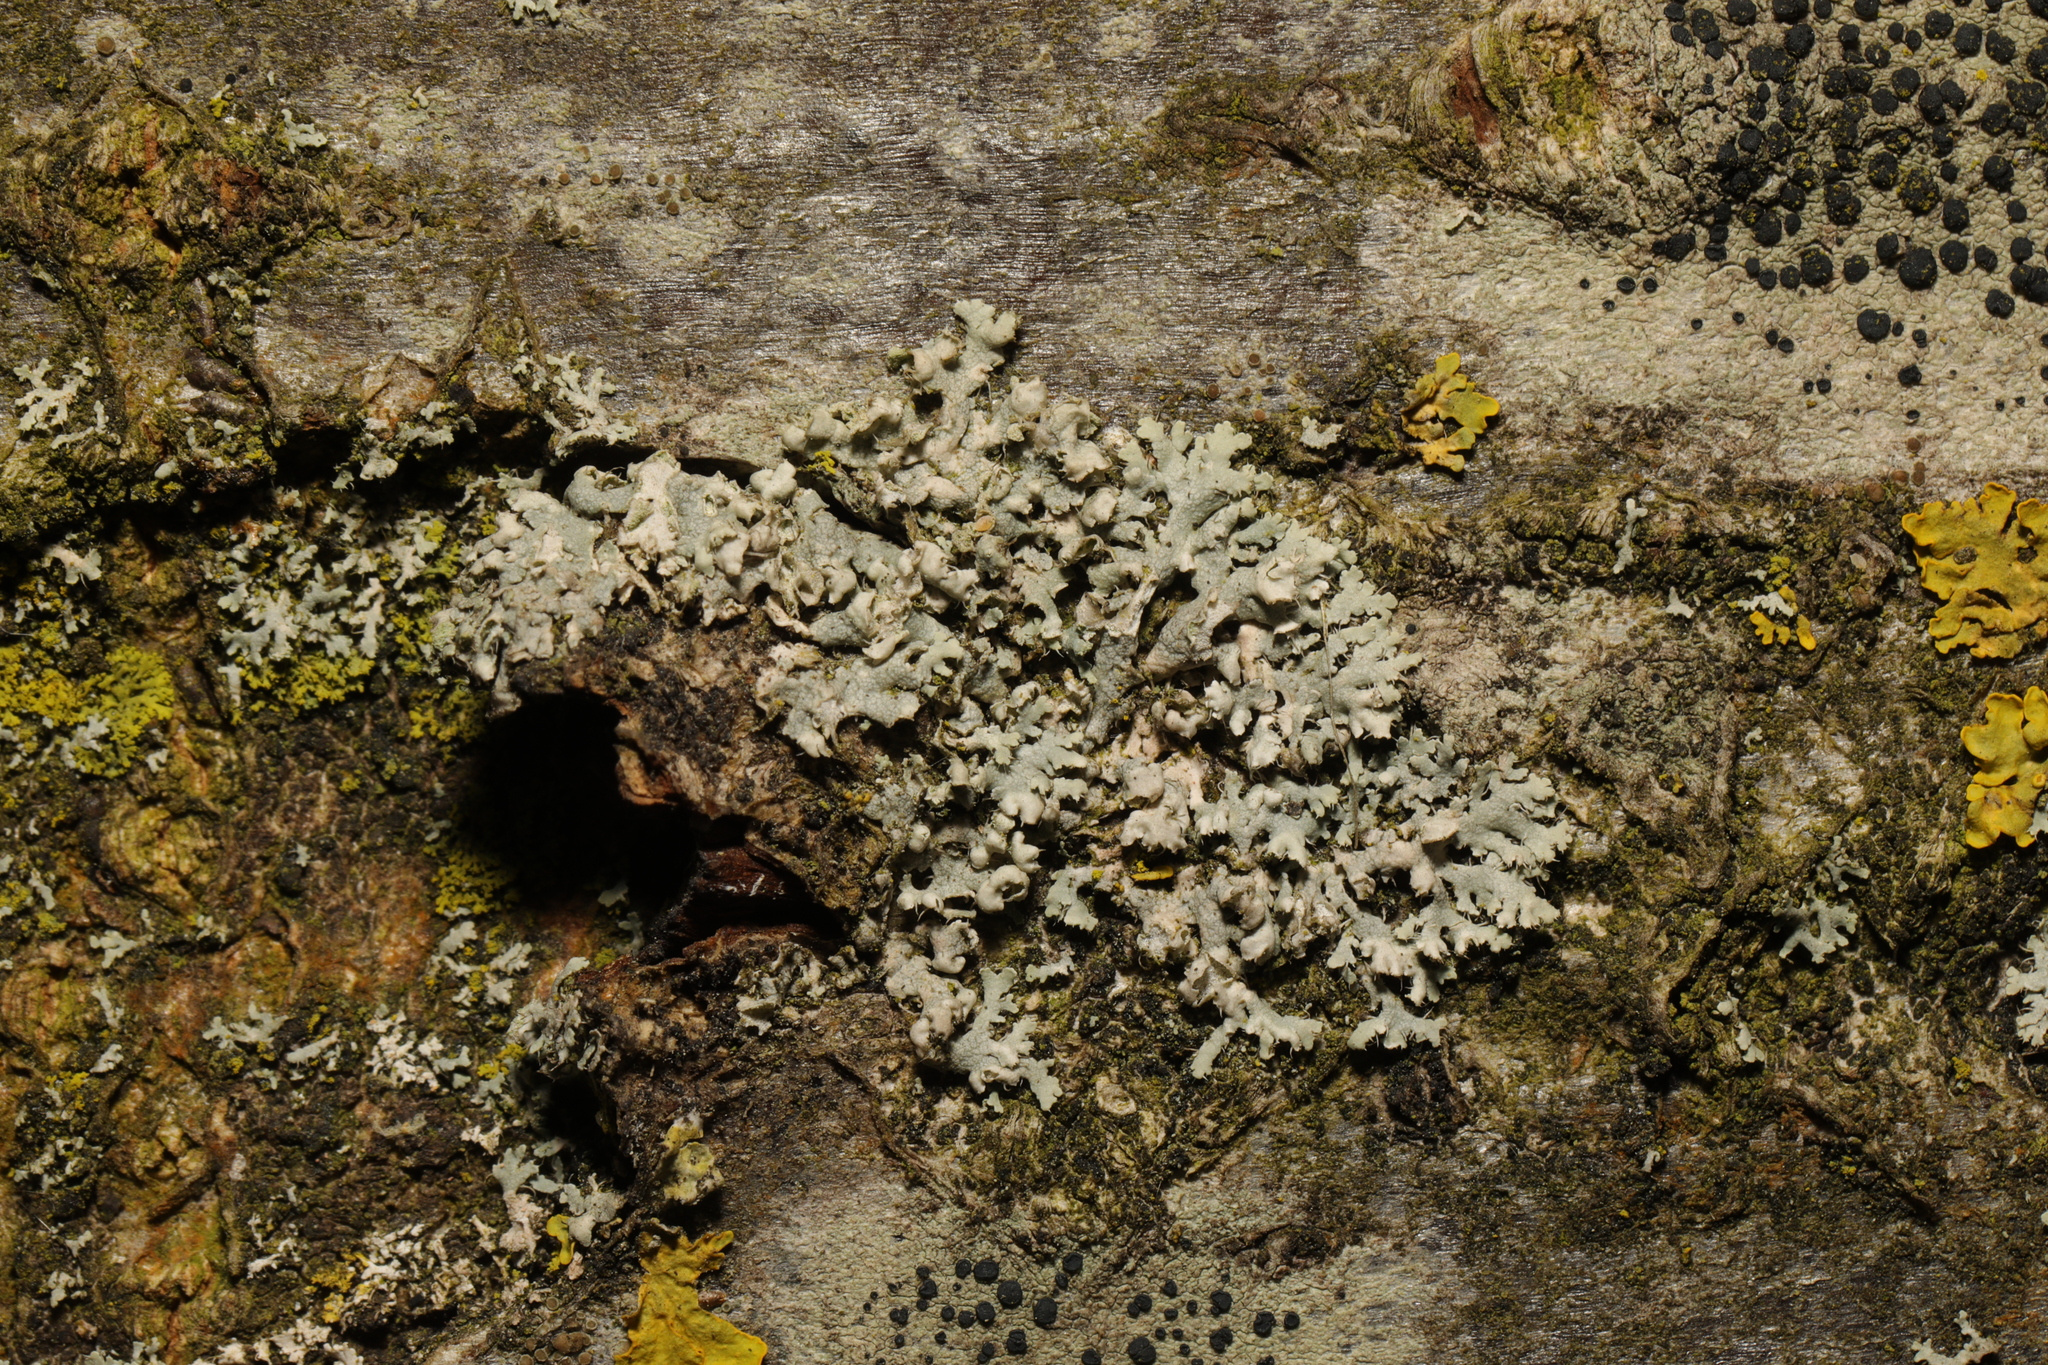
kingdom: Fungi
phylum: Ascomycota
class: Lecanoromycetes
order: Caliciales
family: Physciaceae
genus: Physcia
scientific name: Physcia adscendens
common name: Hooded rosette lichen
